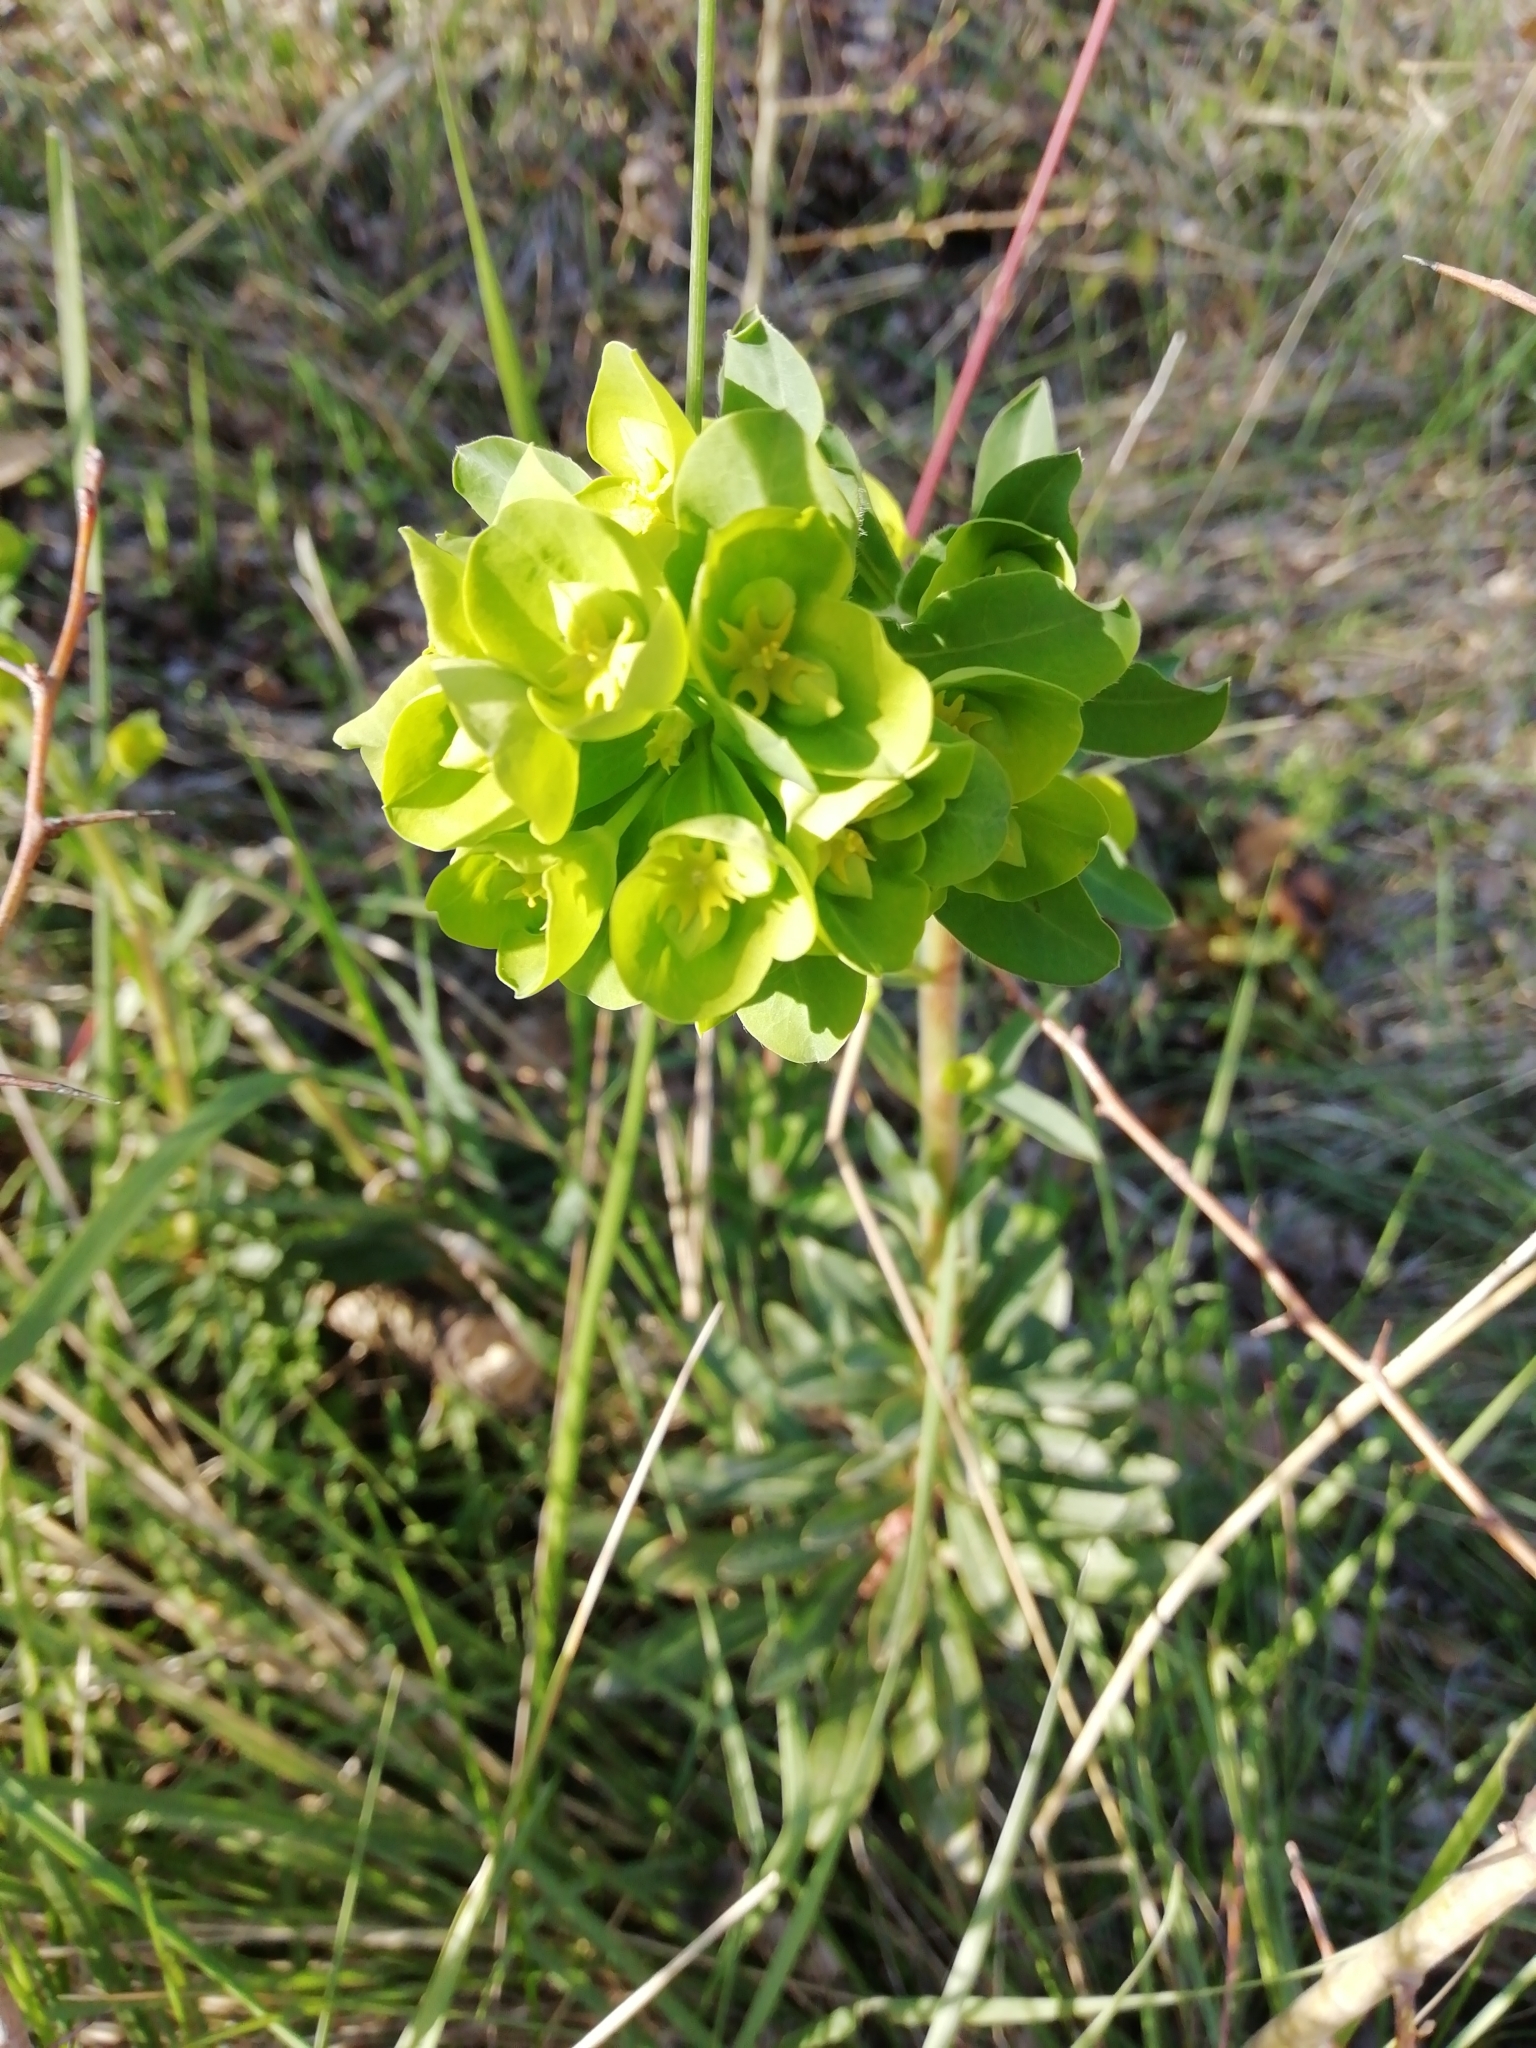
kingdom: Plantae
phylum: Tracheophyta
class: Magnoliopsida
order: Malpighiales
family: Euphorbiaceae
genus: Euphorbia
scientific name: Euphorbia amygdaloides
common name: Wood spurge
